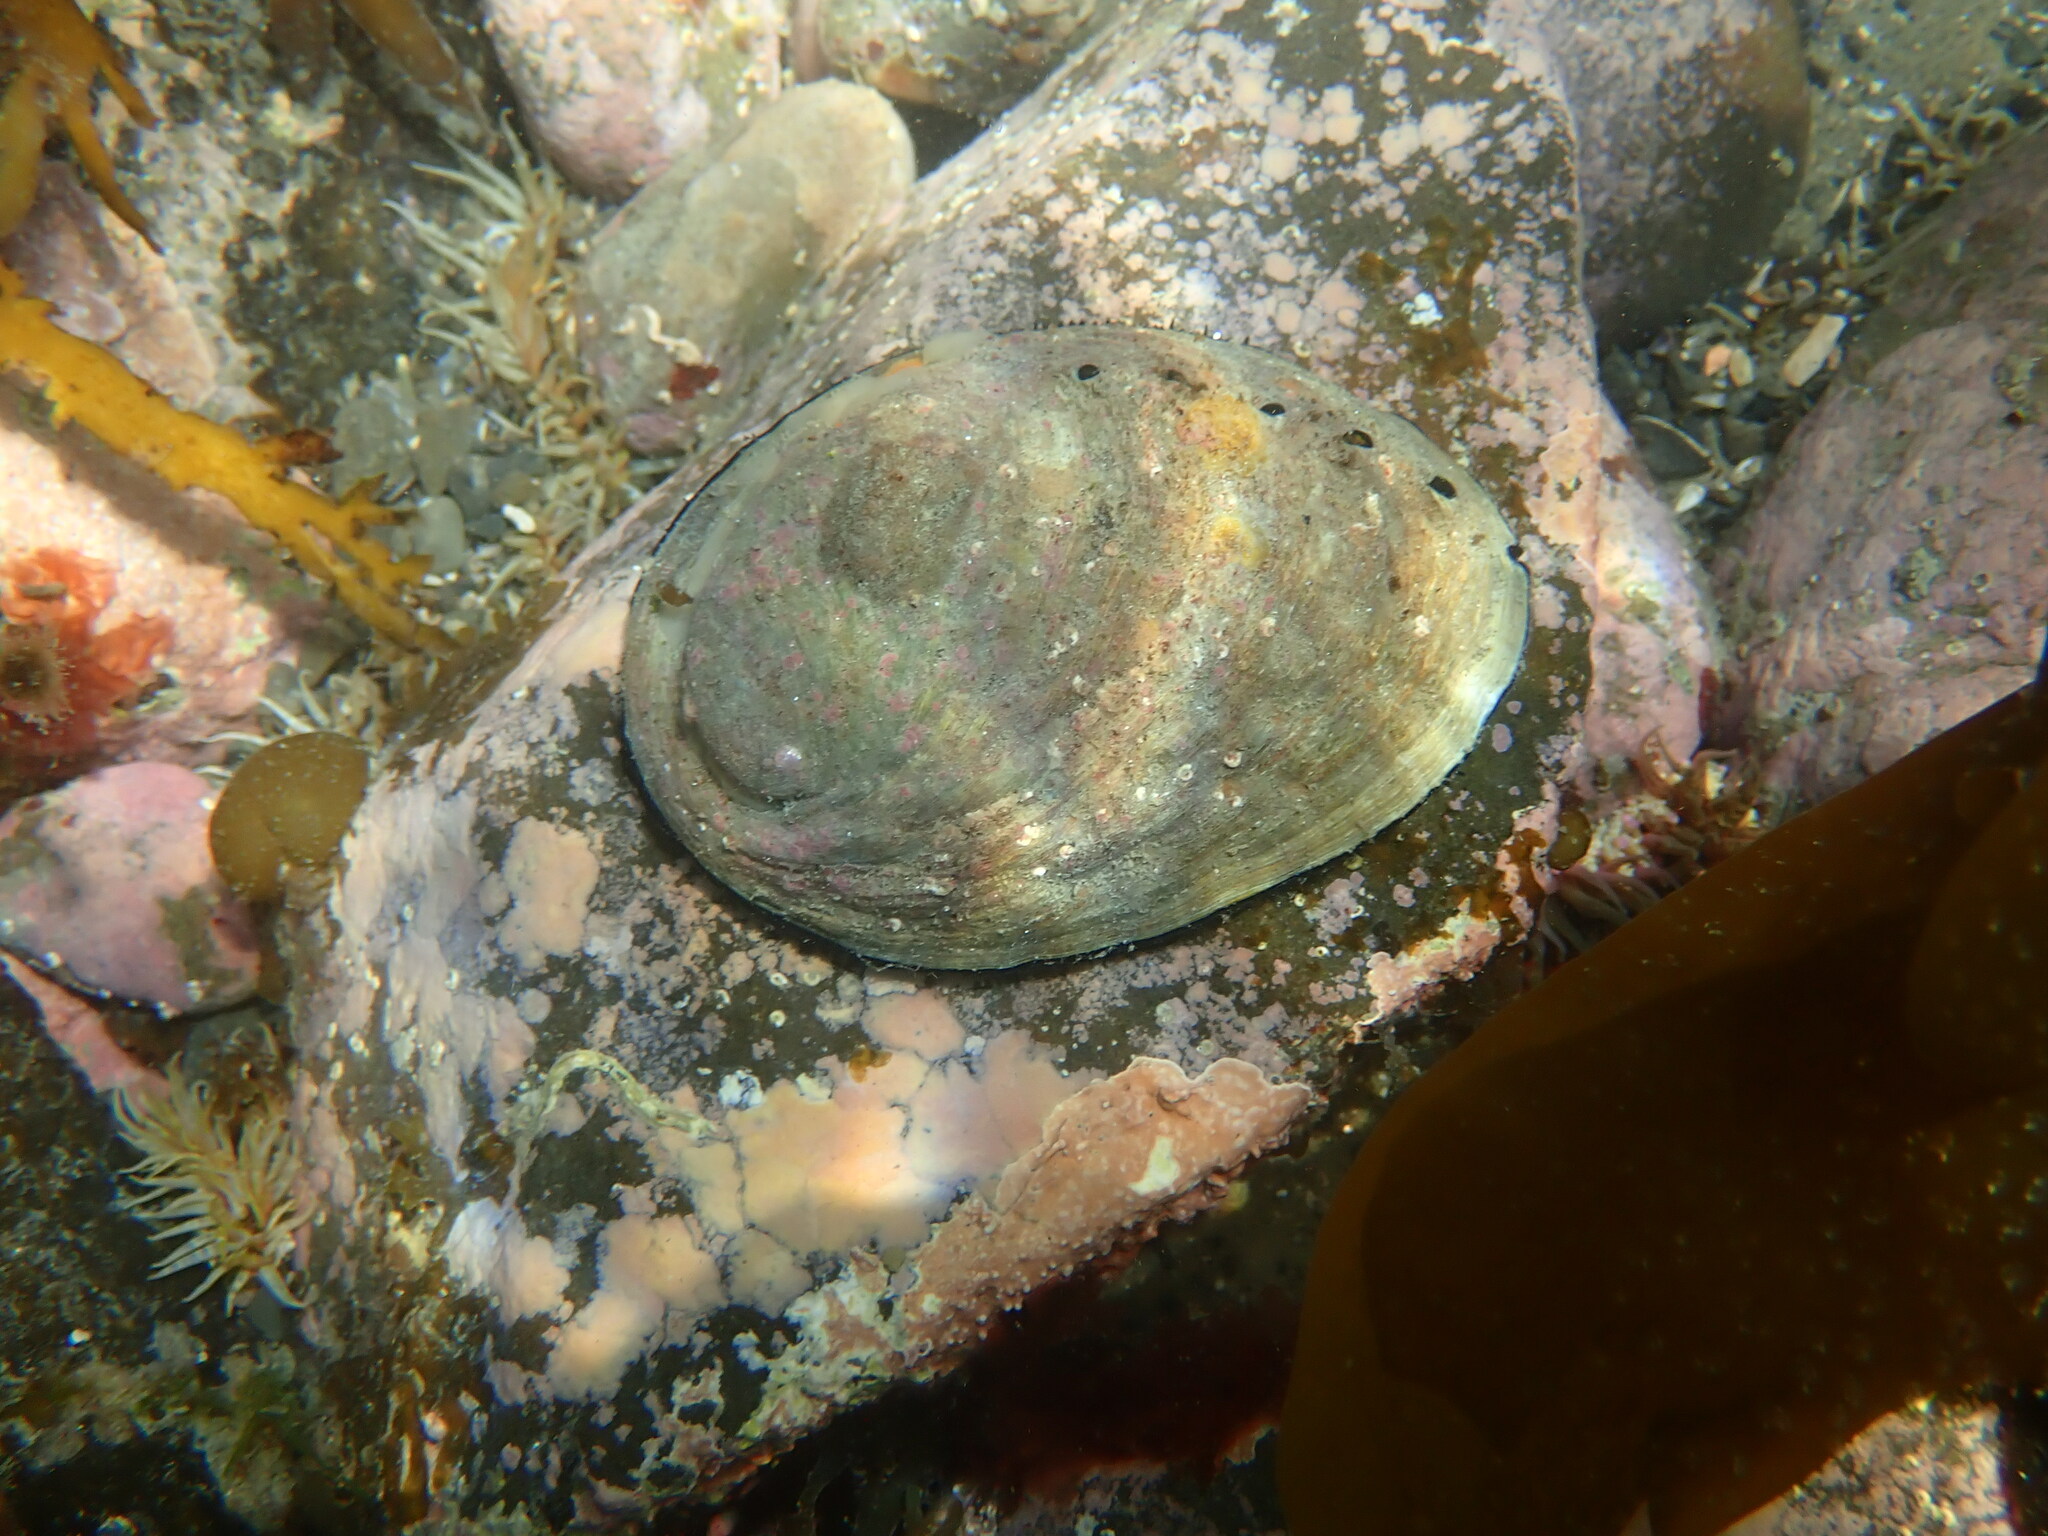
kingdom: Animalia
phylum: Mollusca
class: Gastropoda
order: Lepetellida
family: Haliotidae
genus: Haliotis
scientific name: Haliotis iris
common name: Abalone
